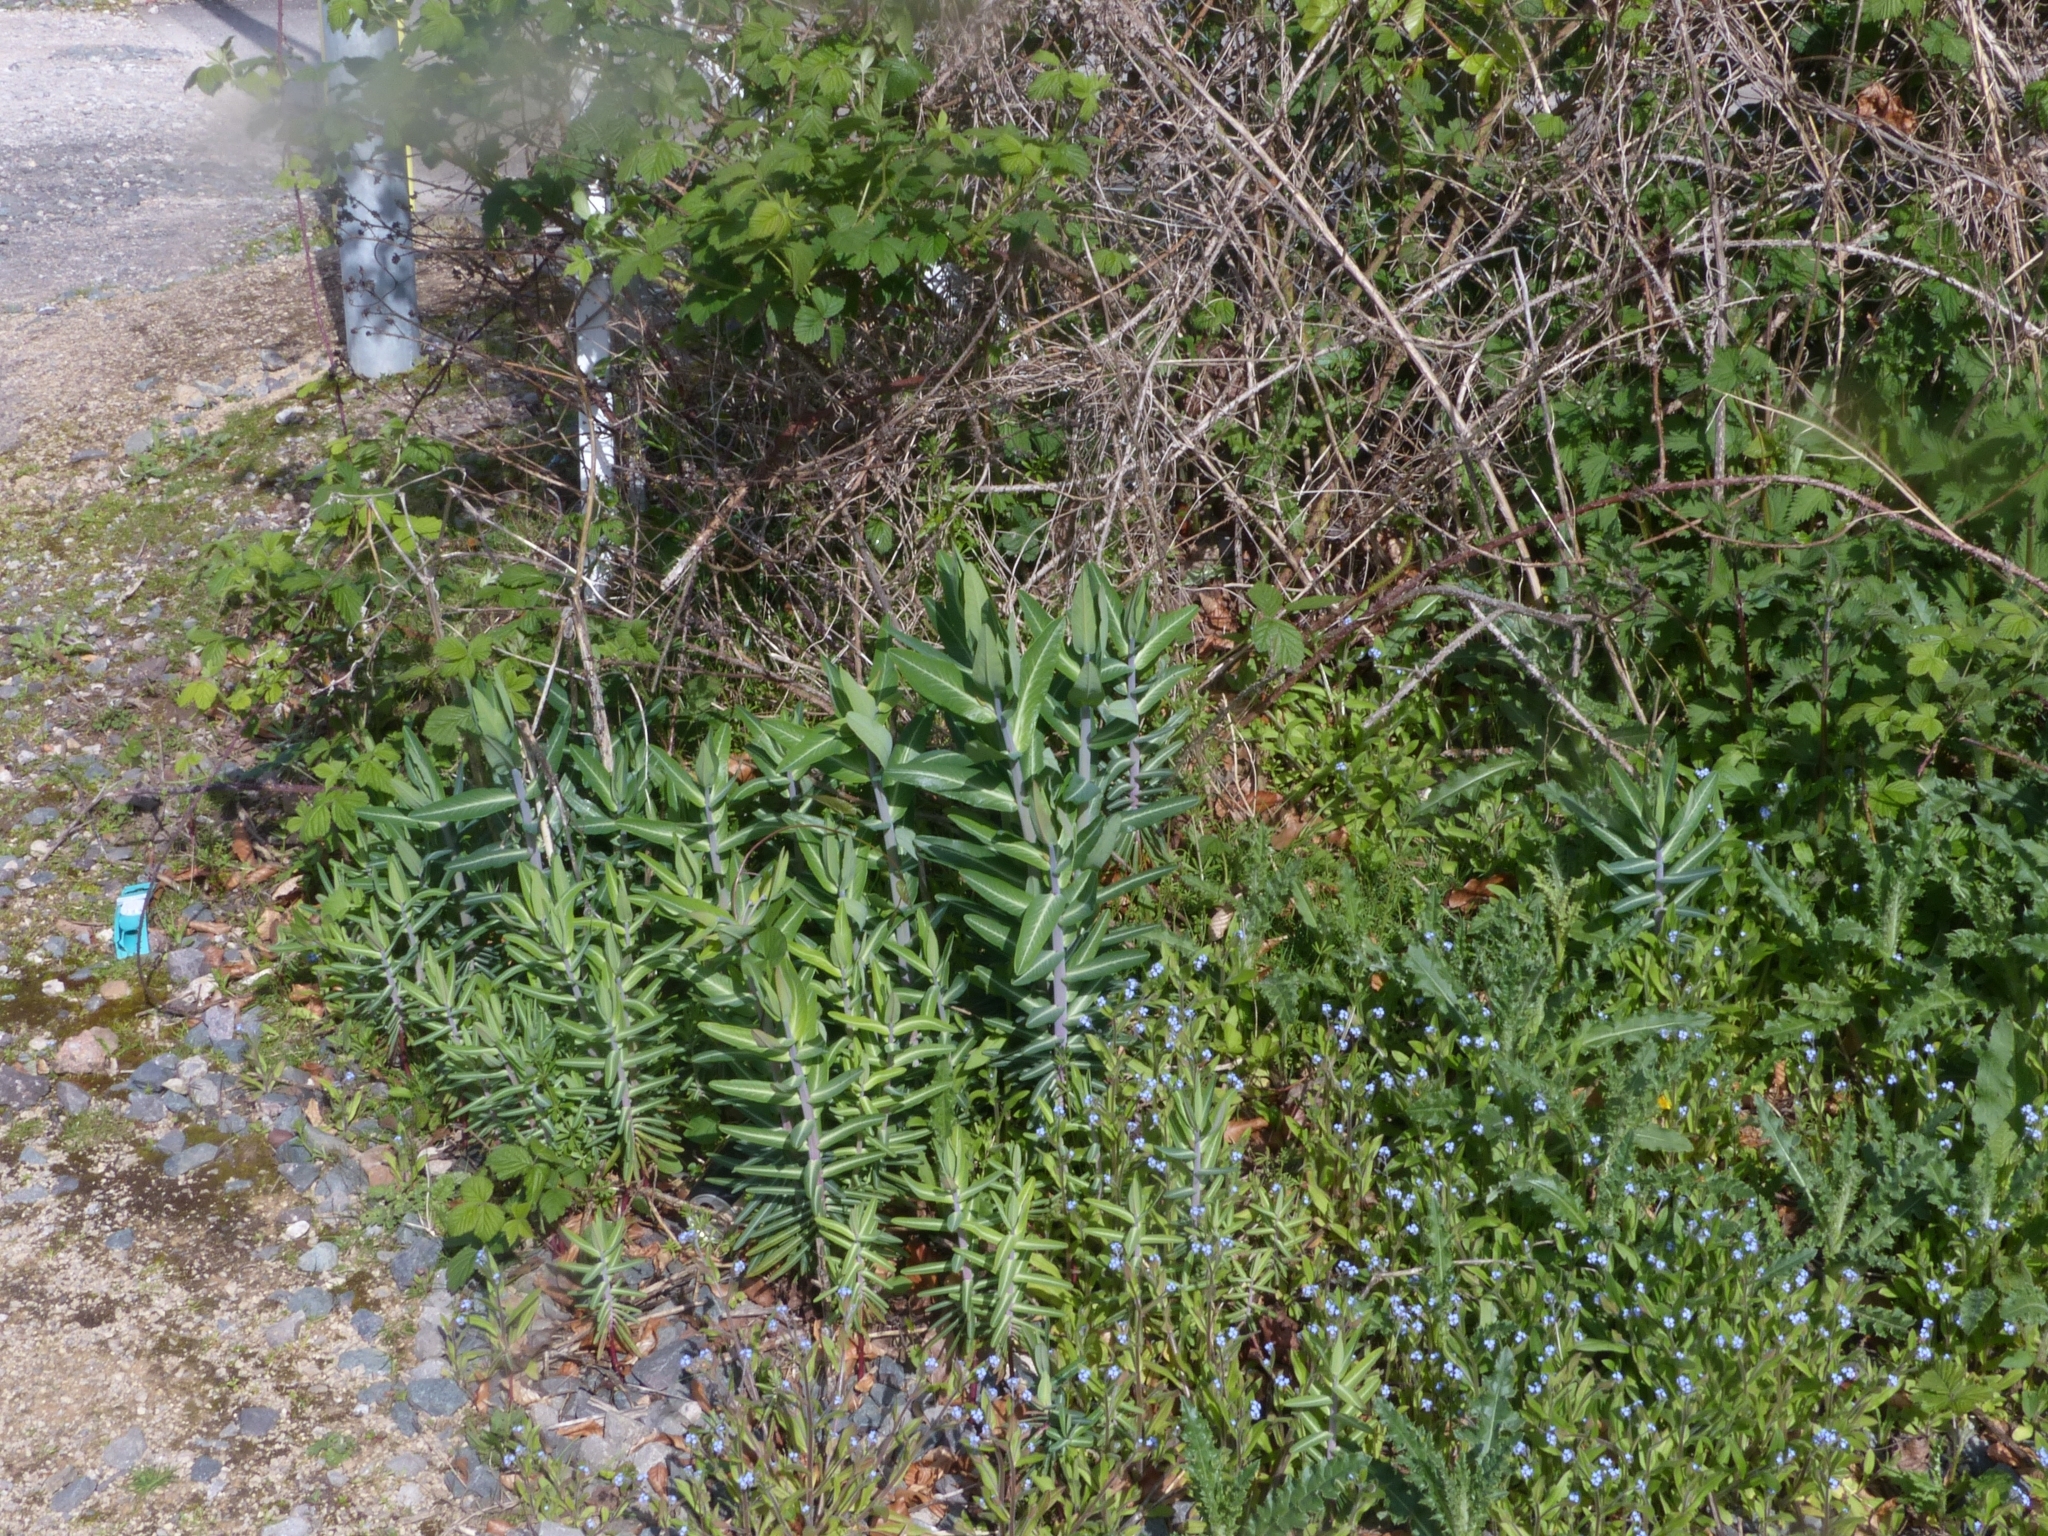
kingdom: Plantae
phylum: Tracheophyta
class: Magnoliopsida
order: Malpighiales
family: Euphorbiaceae
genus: Euphorbia
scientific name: Euphorbia lathyris
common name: Caper spurge
